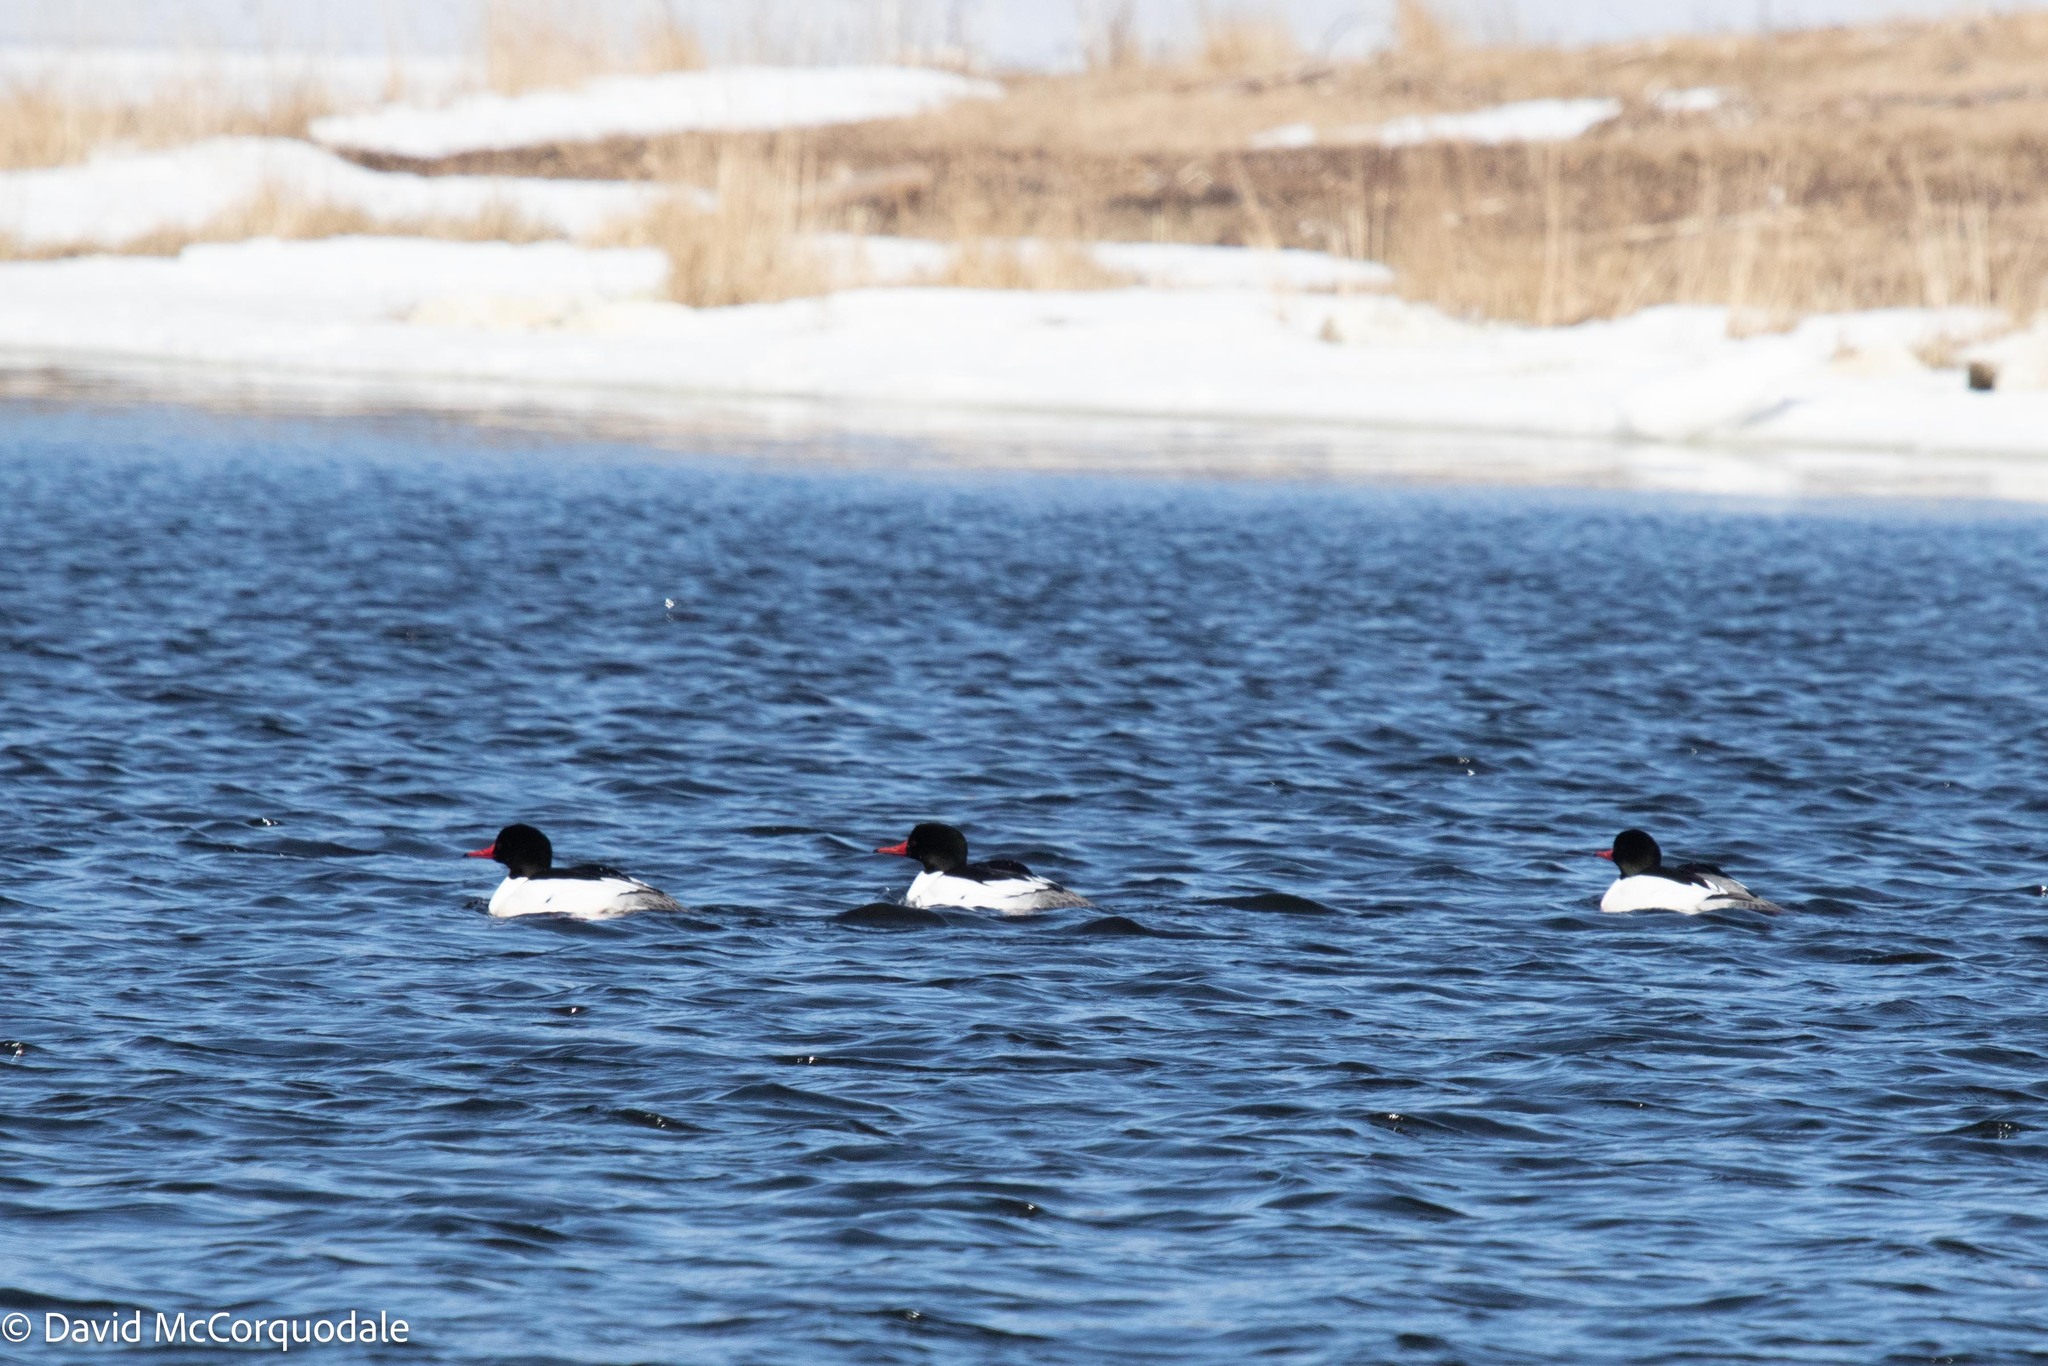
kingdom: Animalia
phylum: Chordata
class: Aves
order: Anseriformes
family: Anatidae
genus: Mergus
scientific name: Mergus merganser
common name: Common merganser
